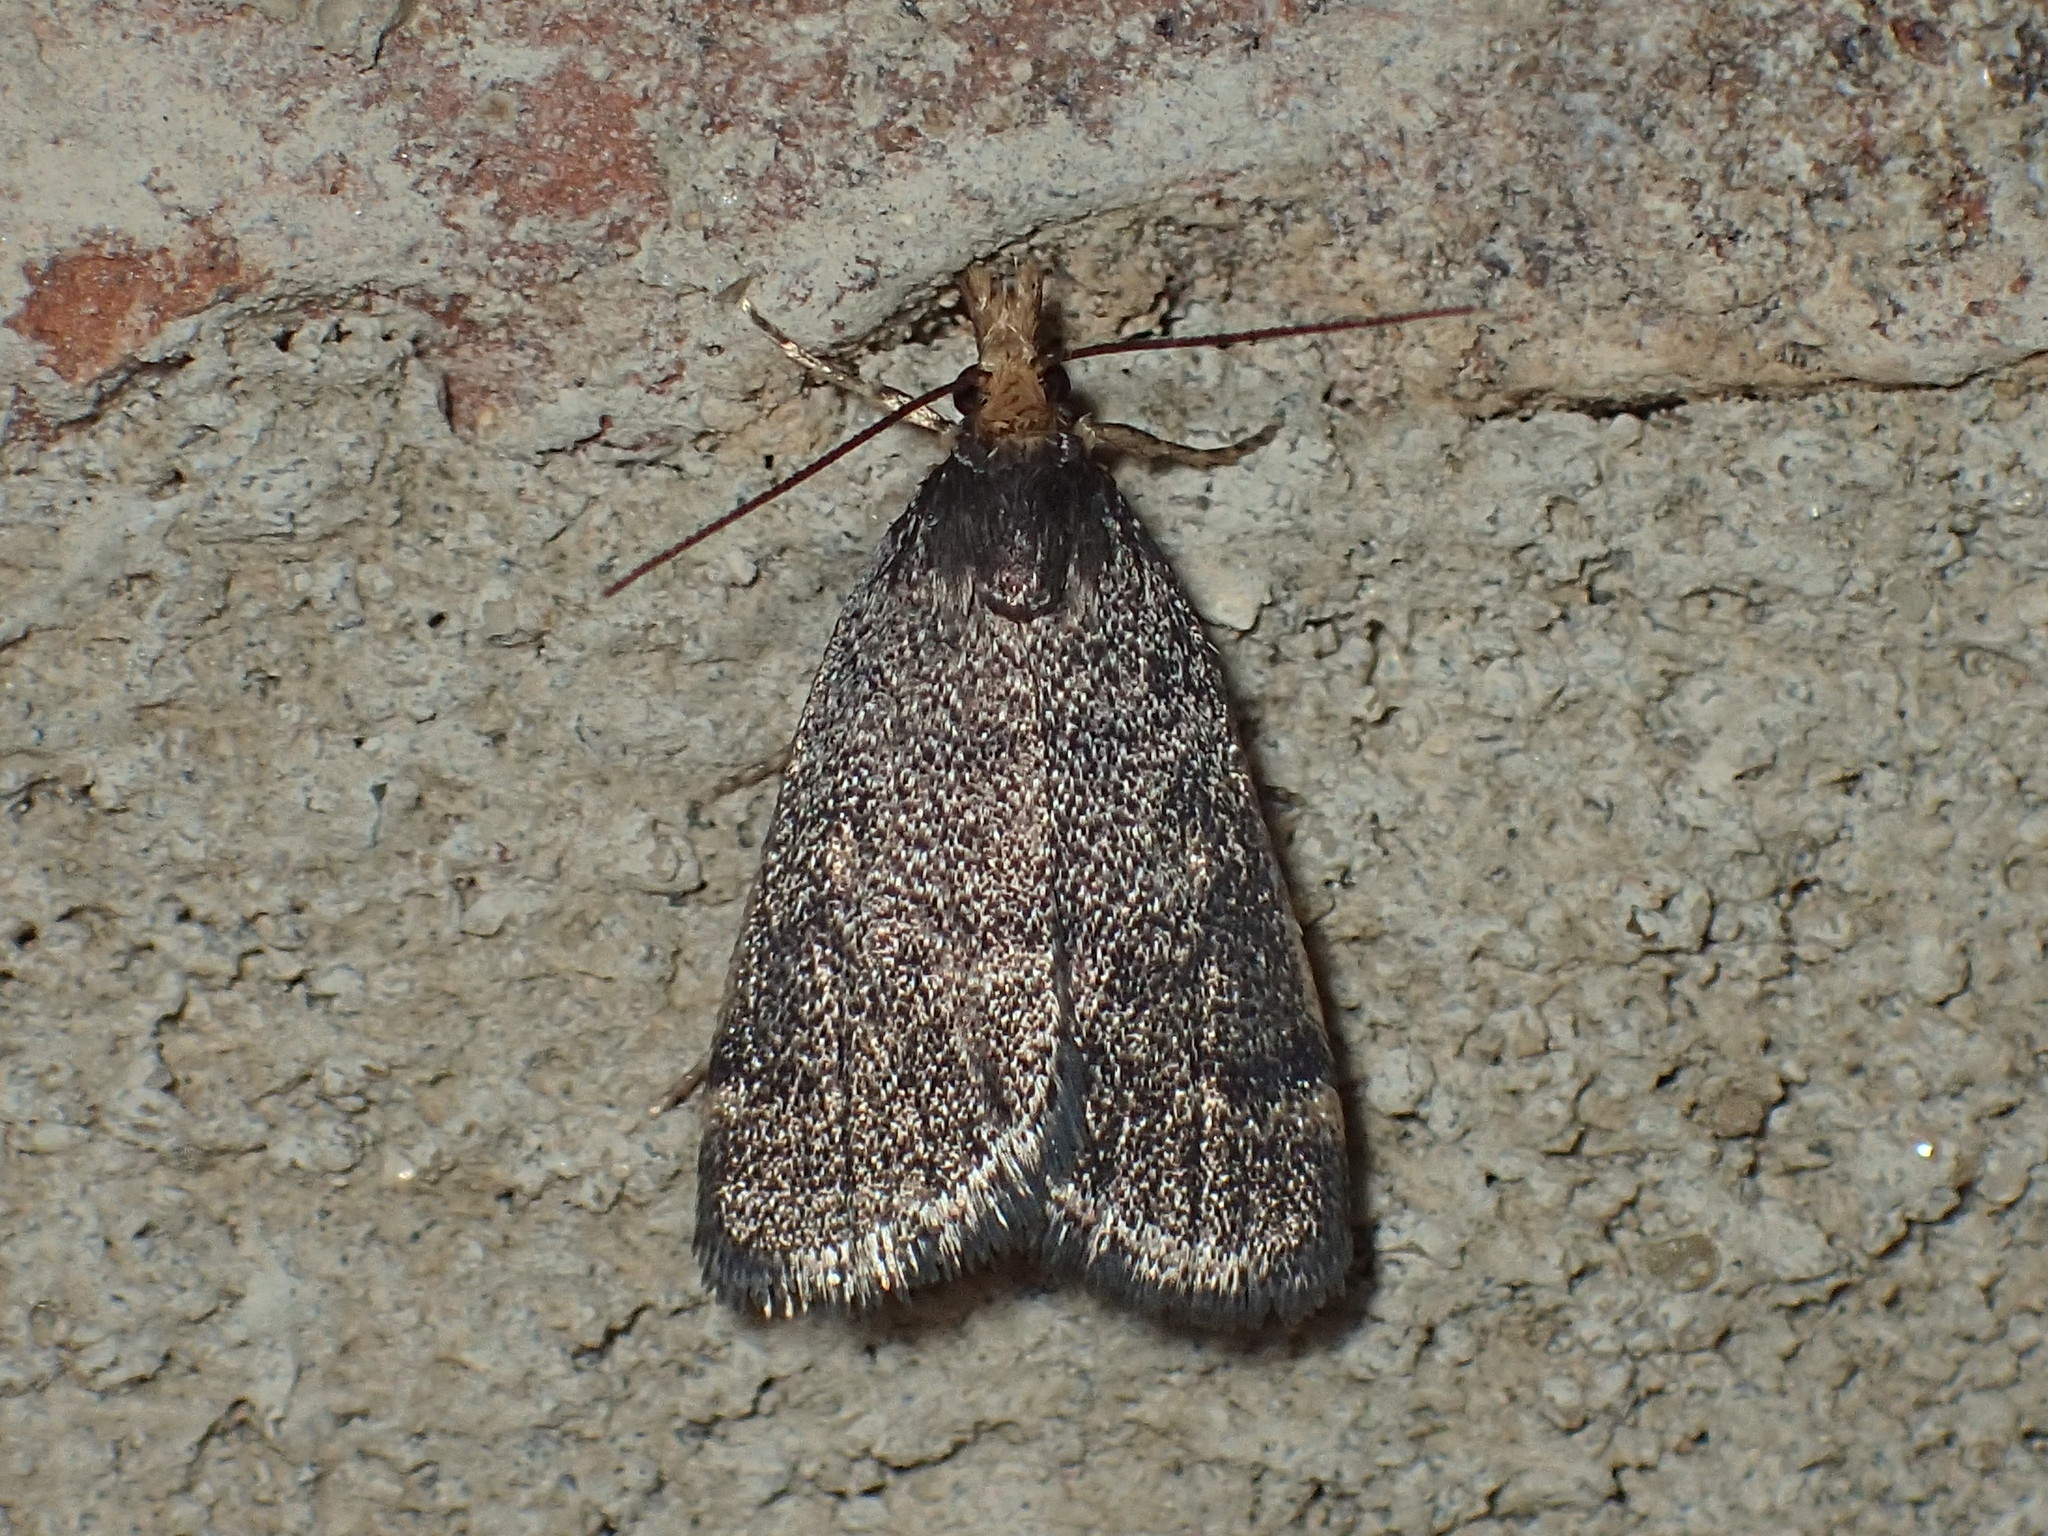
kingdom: Animalia
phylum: Arthropoda
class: Insecta
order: Lepidoptera
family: Crambidae
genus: Pyrausta
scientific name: Pyrausta merrickalis
